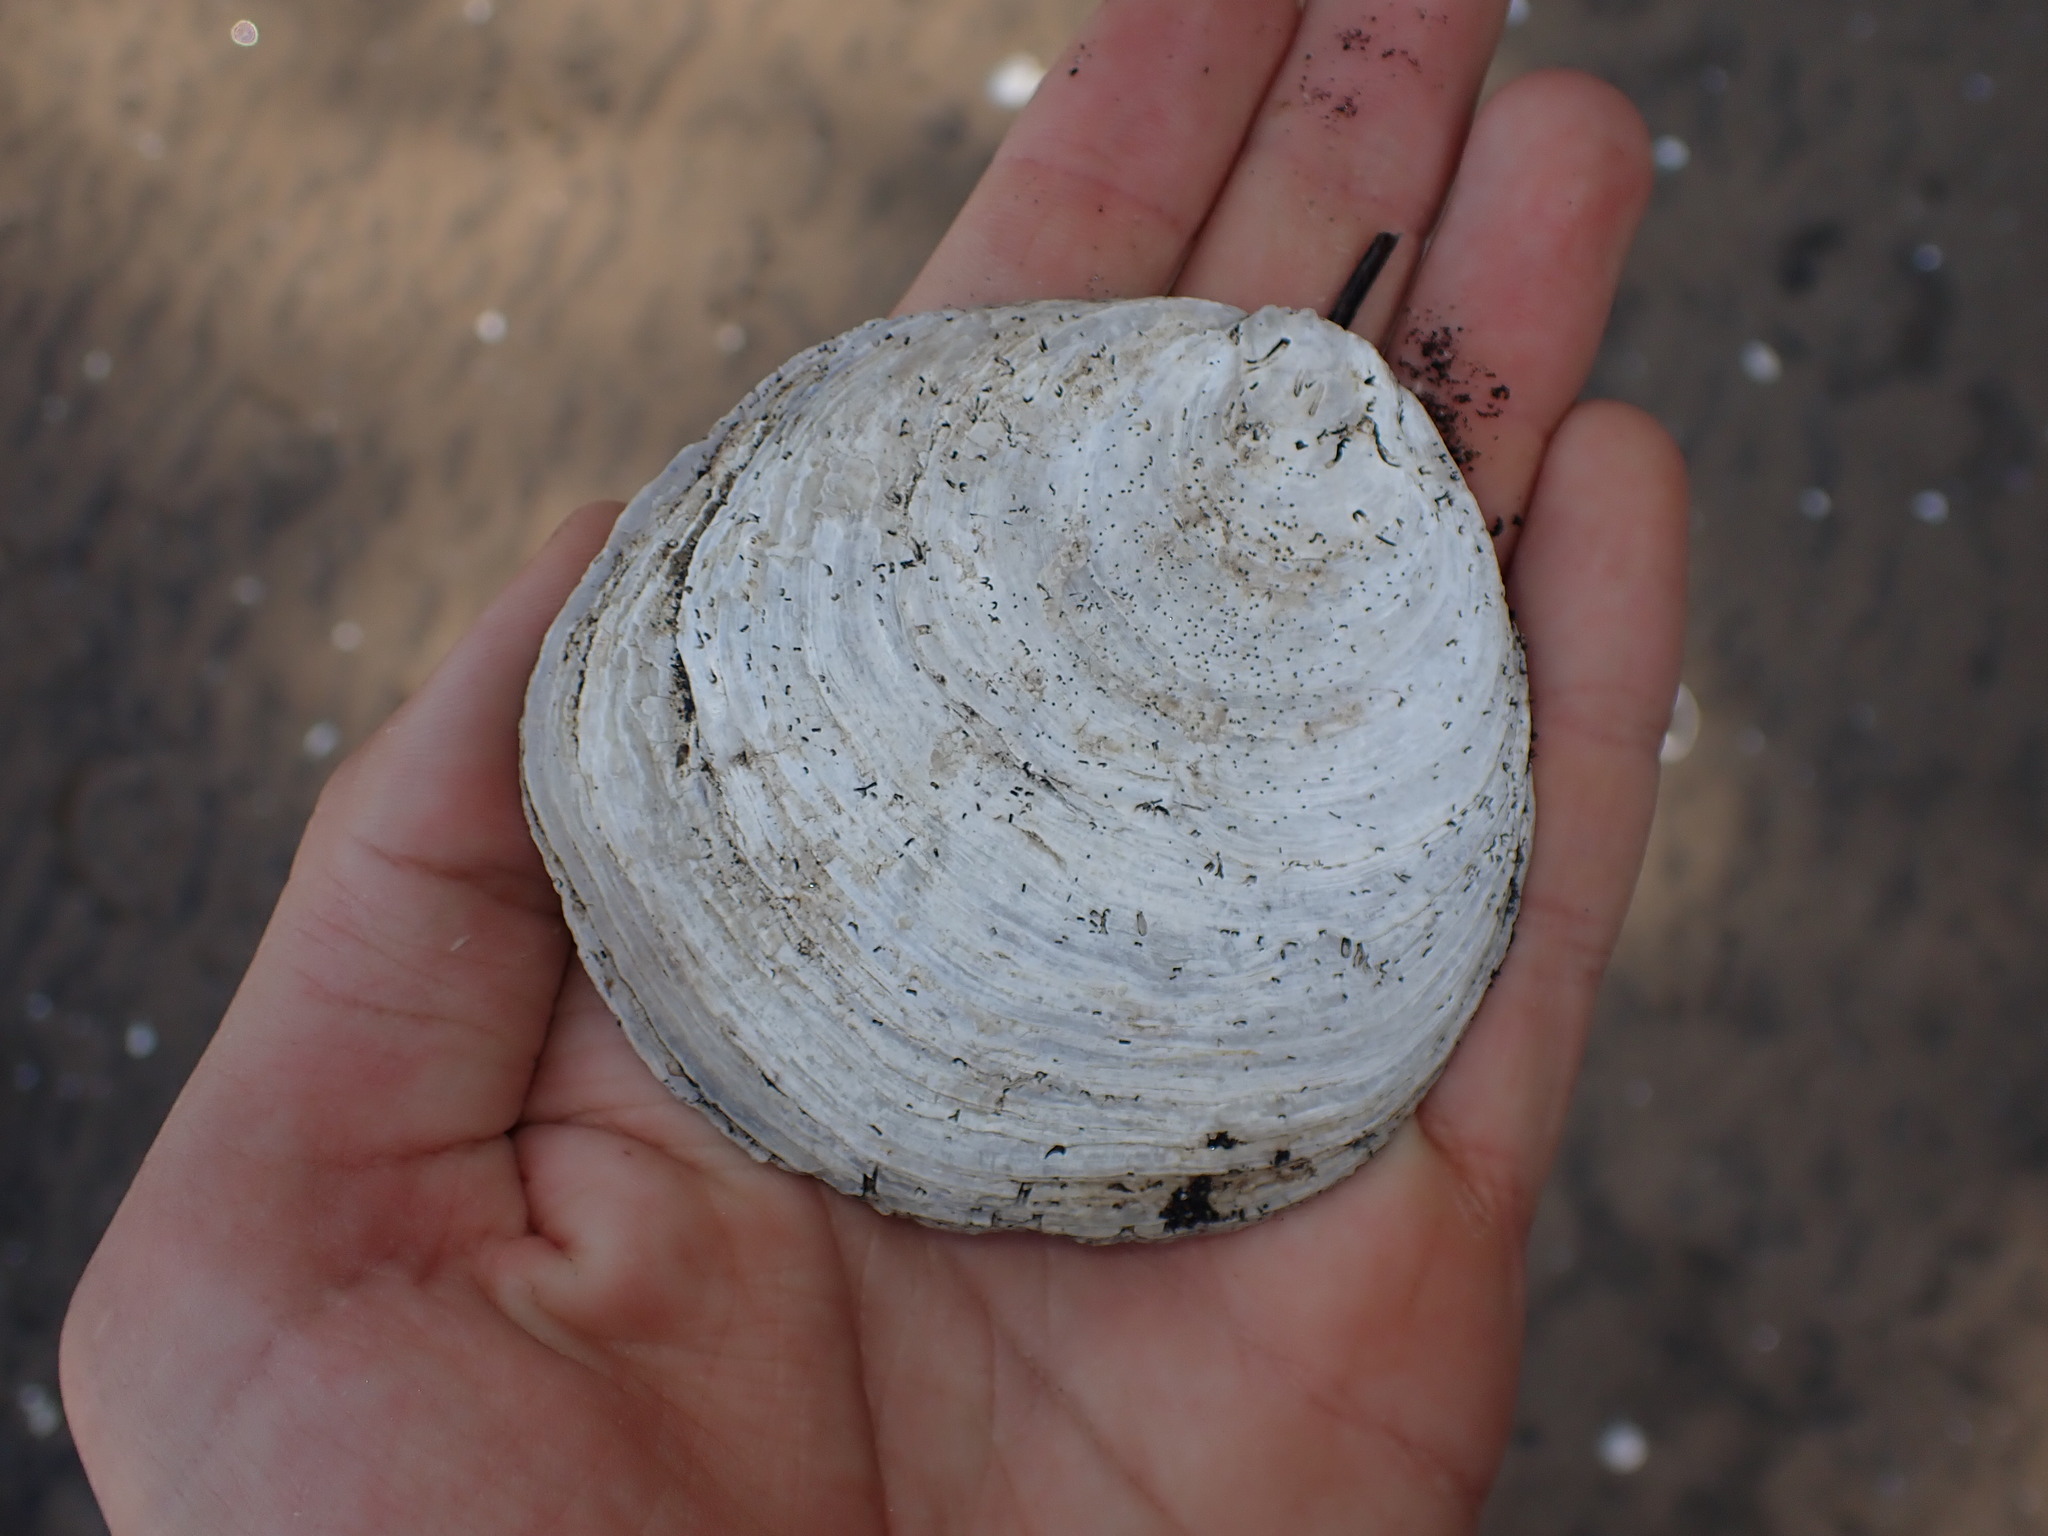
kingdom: Animalia
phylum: Mollusca
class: Bivalvia
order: Ostreida
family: Ostreidae
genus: Ostrea
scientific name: Ostrea chilensis
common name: Chilean oyster
